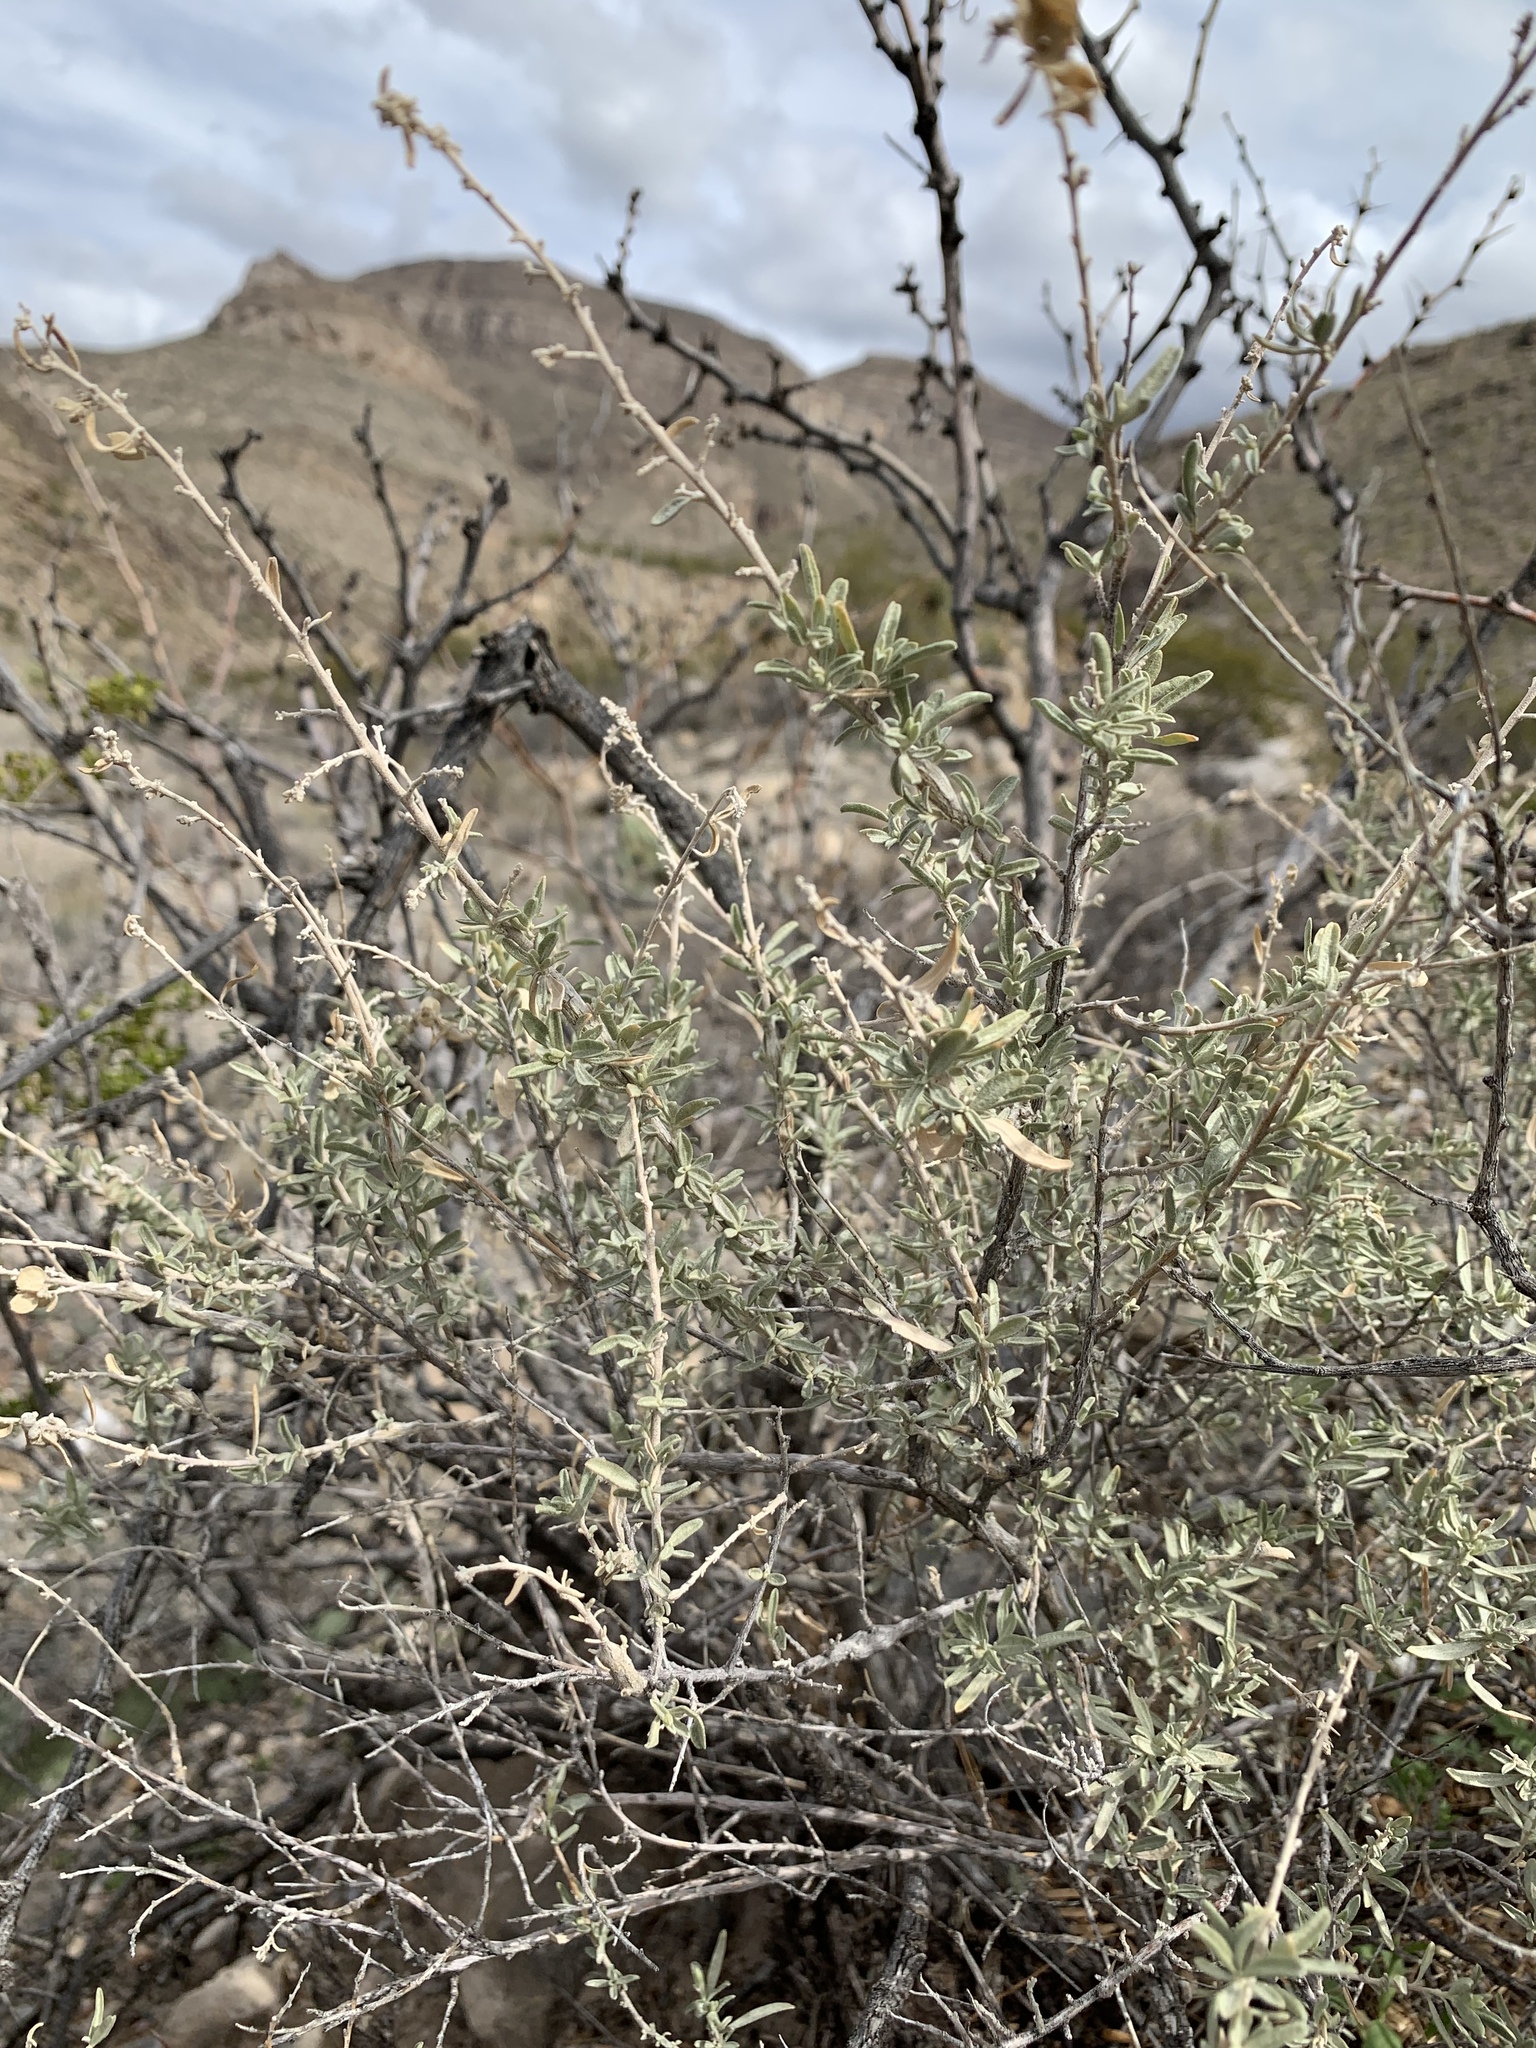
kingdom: Plantae
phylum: Tracheophyta
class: Magnoliopsida
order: Fabales
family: Fabaceae
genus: Prosopis
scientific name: Prosopis glandulosa
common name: Honey mesquite
